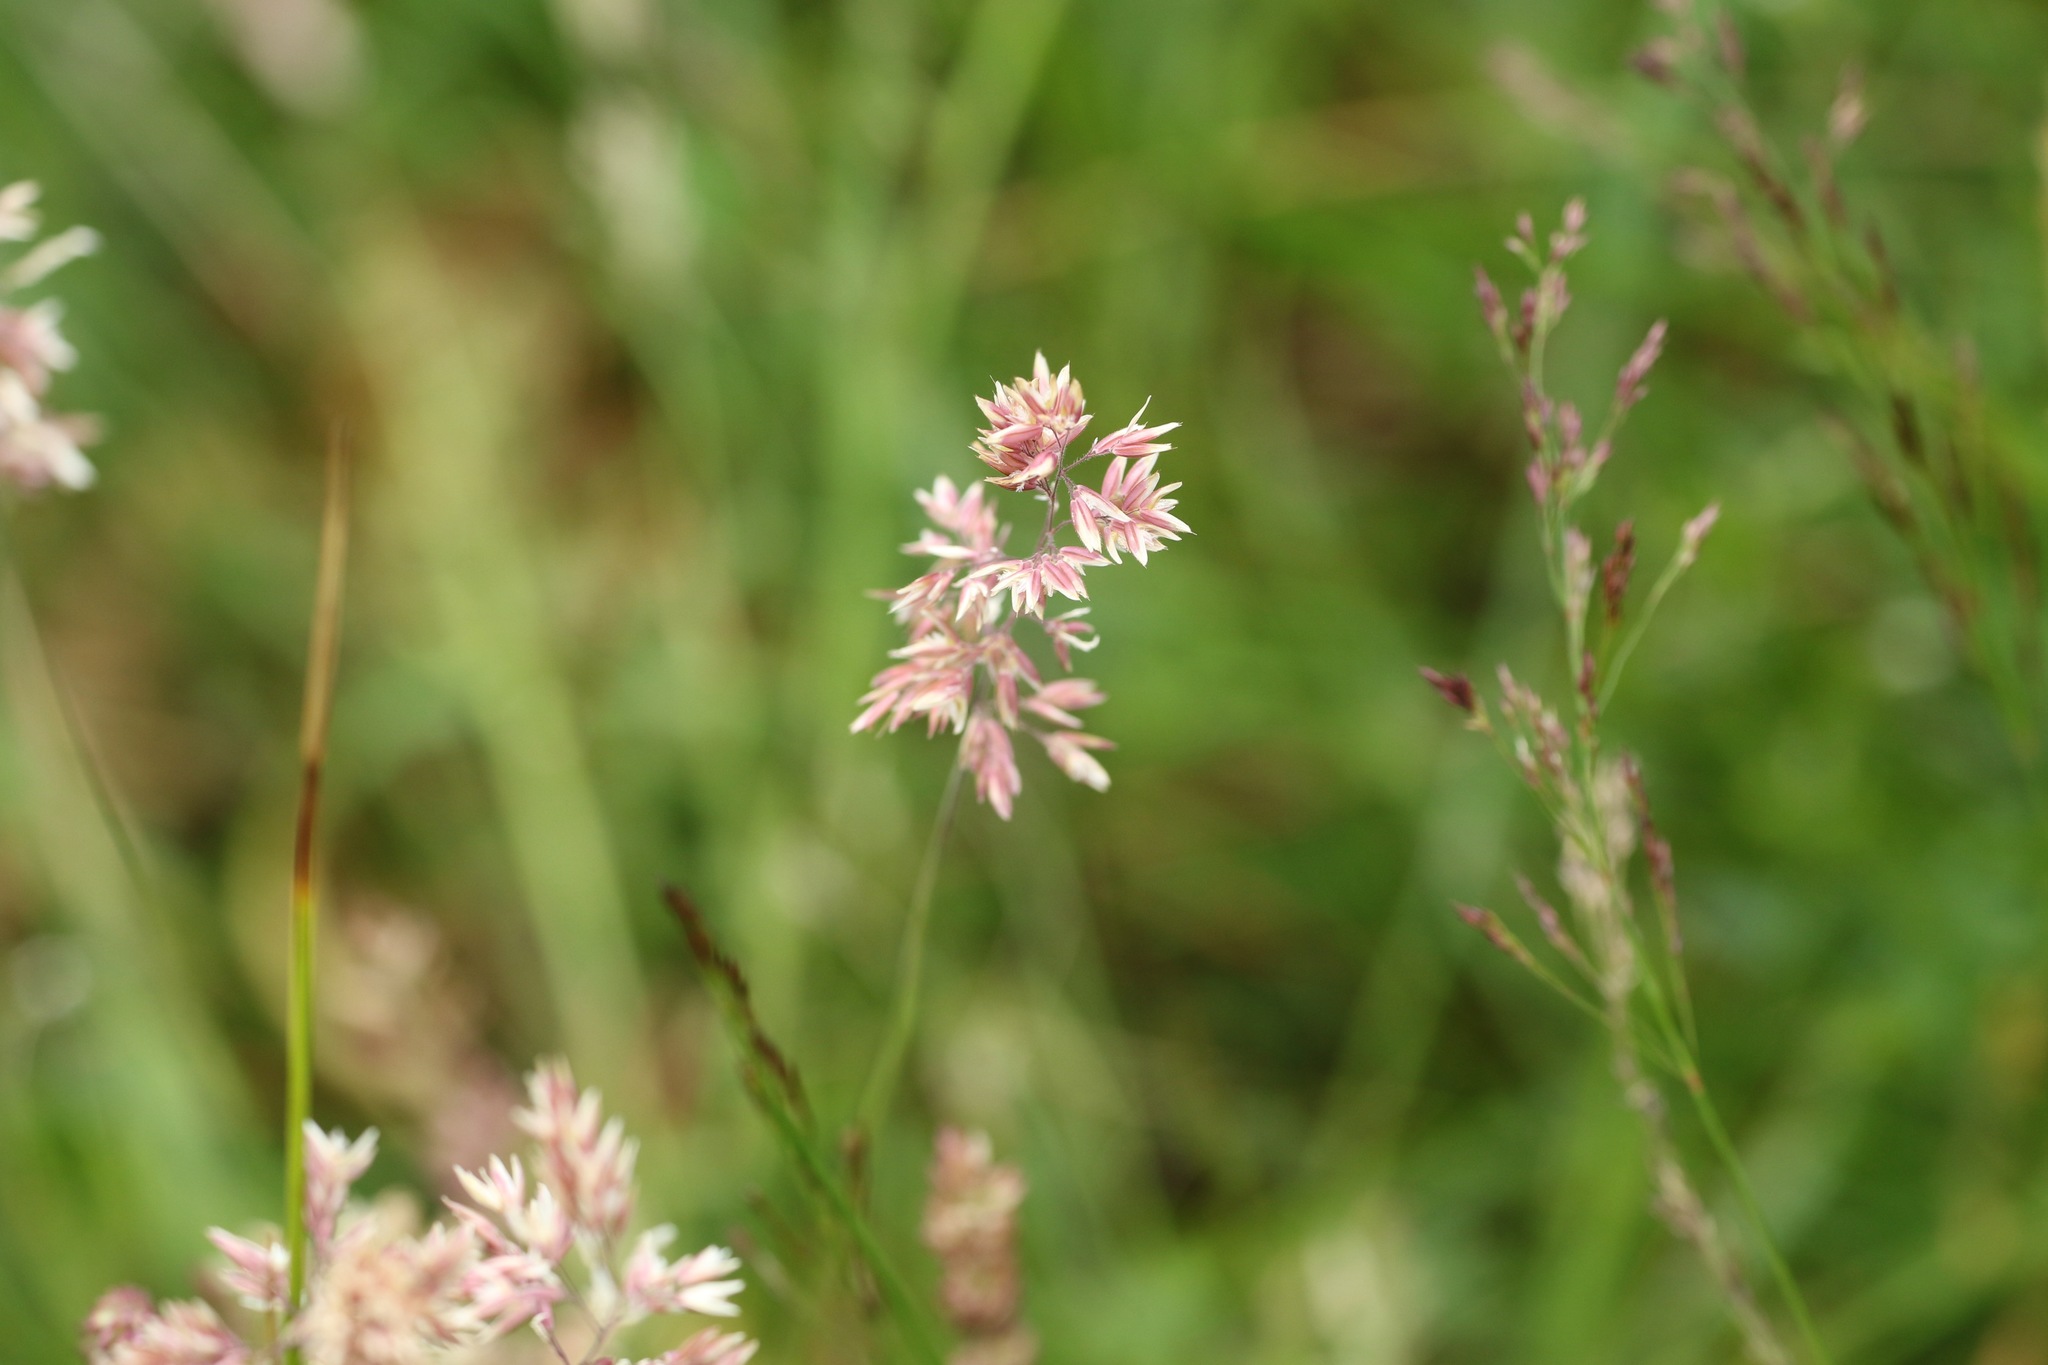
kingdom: Plantae
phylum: Tracheophyta
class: Liliopsida
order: Poales
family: Poaceae
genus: Holcus
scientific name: Holcus lanatus
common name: Yorkshire-fog
